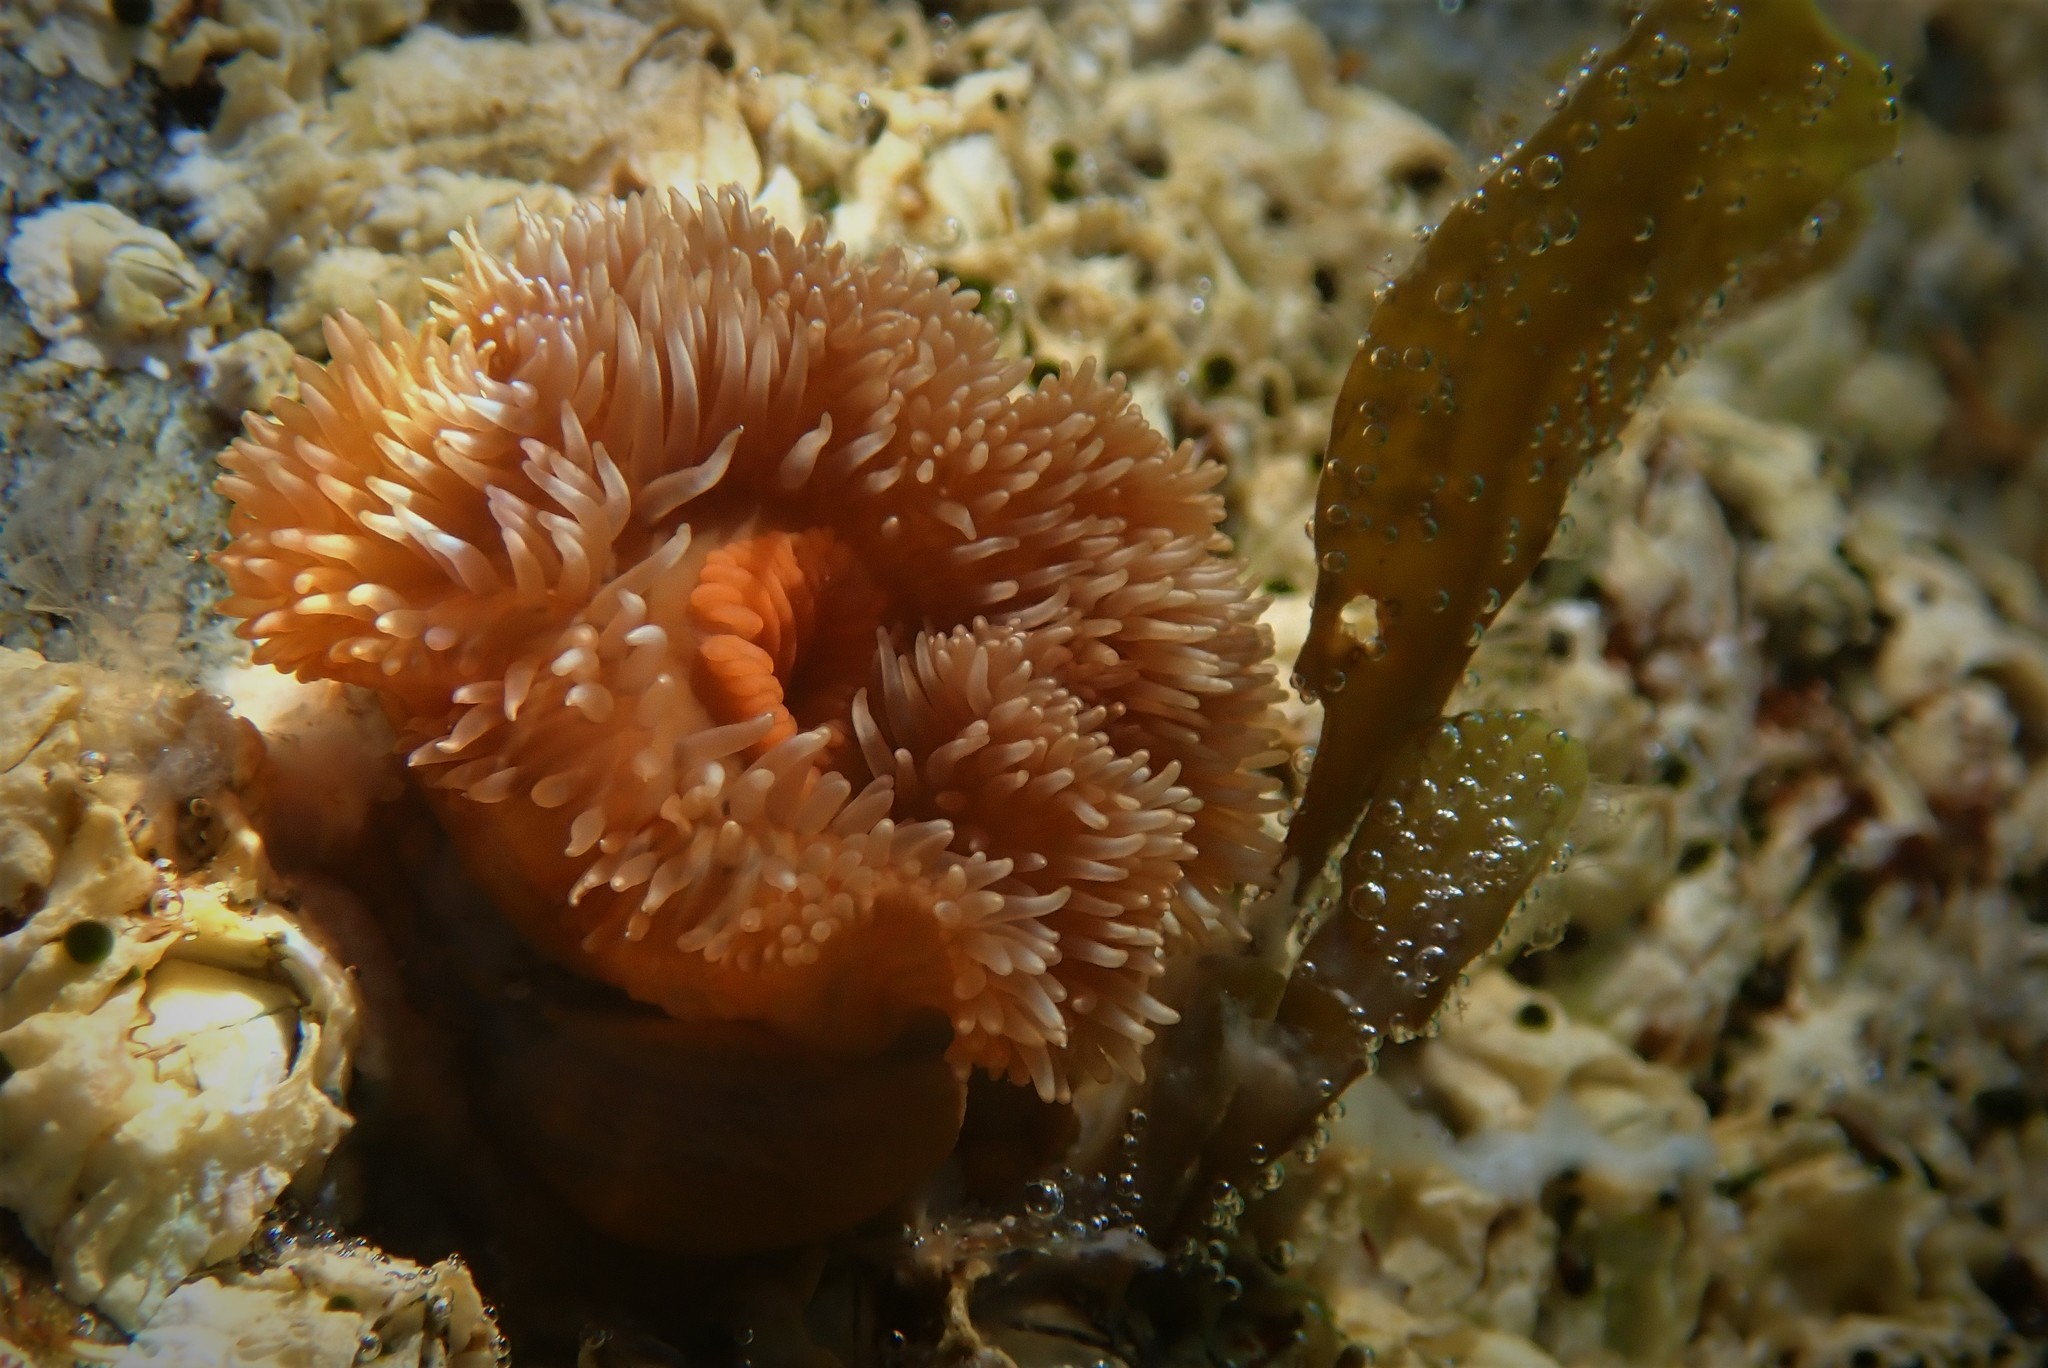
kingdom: Animalia
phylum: Cnidaria
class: Anthozoa
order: Actiniaria
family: Metridiidae
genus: Metridium
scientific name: Metridium senile
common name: Clonal plumose anemone
